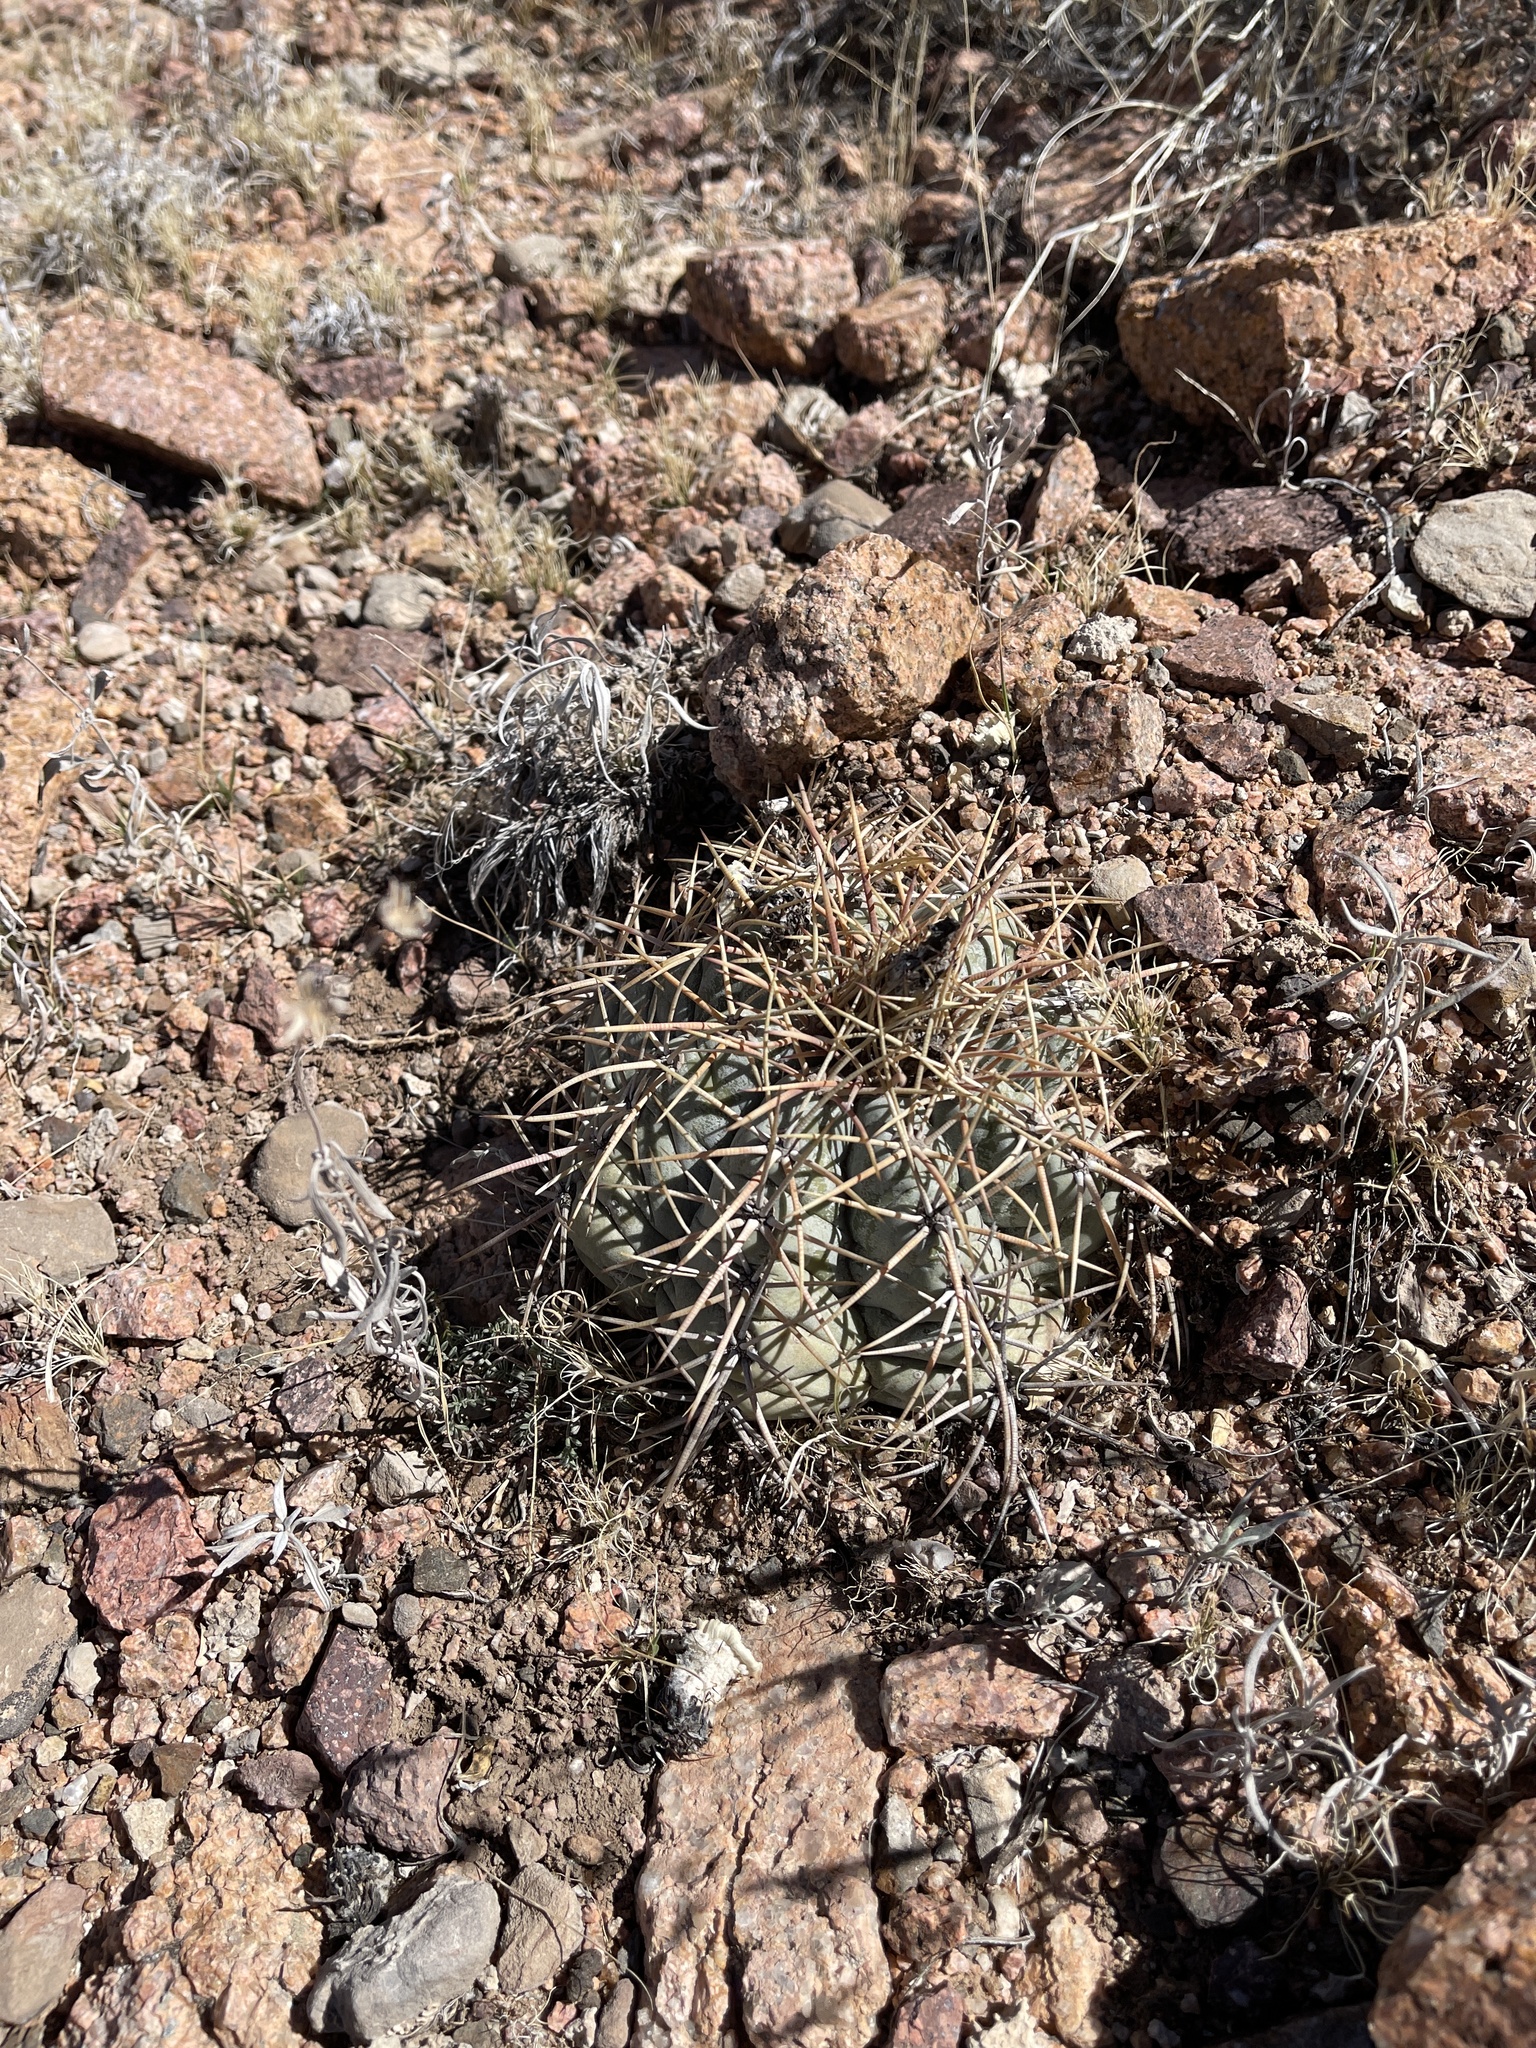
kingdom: Plantae
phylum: Tracheophyta
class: Magnoliopsida
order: Caryophyllales
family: Cactaceae
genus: Echinocactus
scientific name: Echinocactus horizonthalonius
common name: Devilshead
